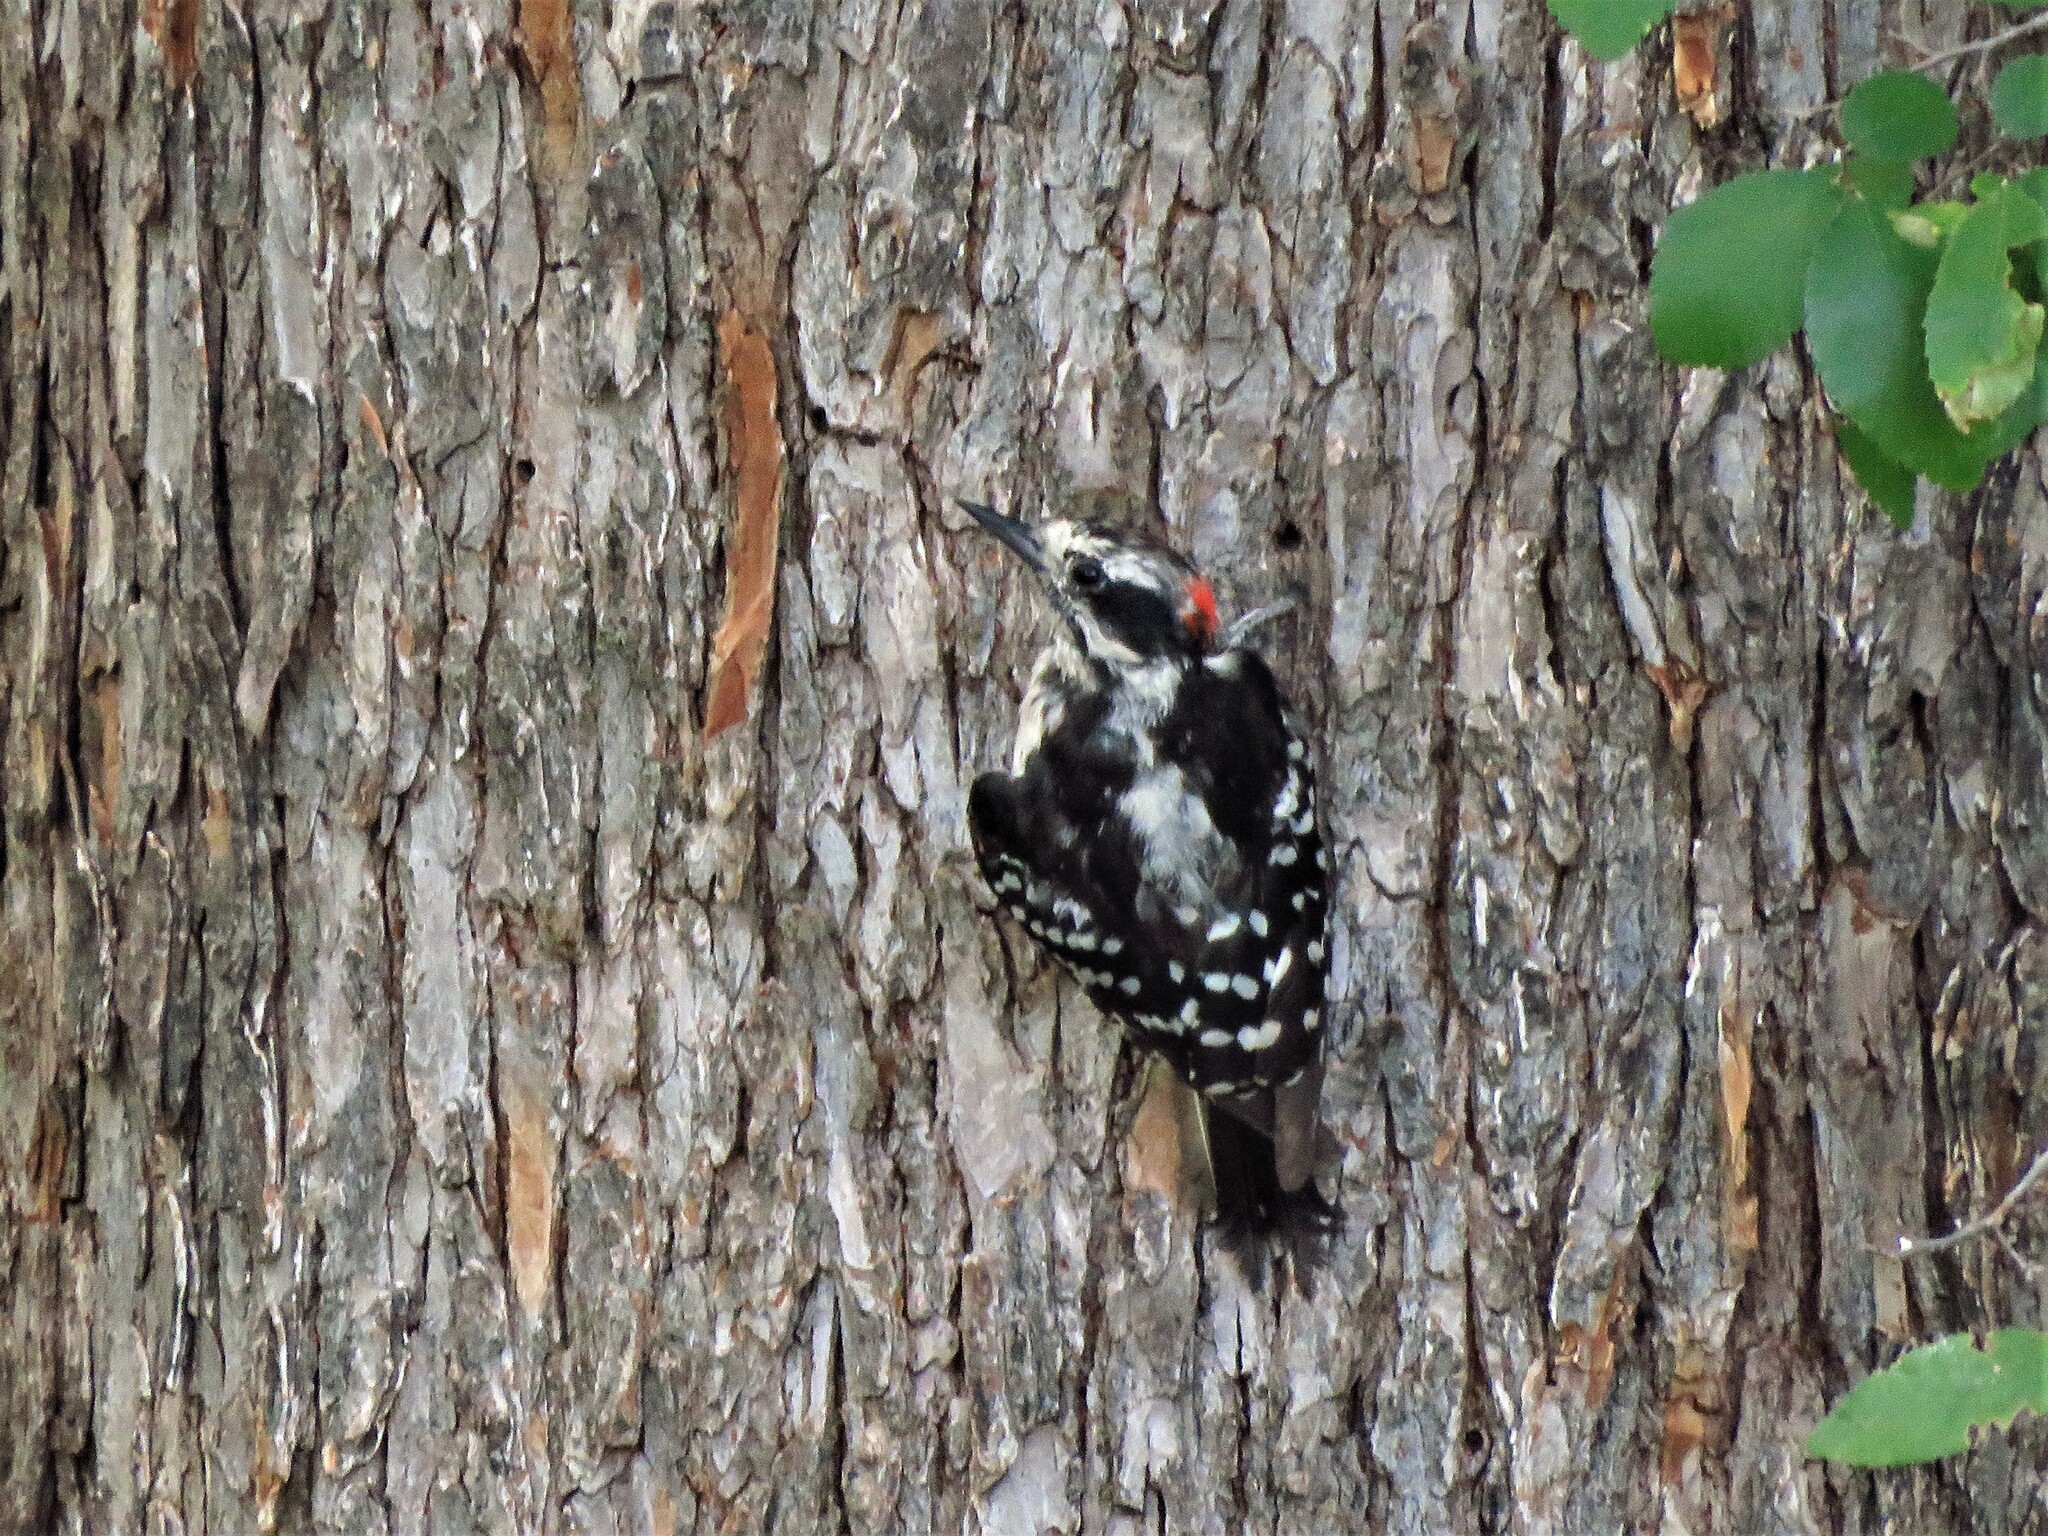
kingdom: Animalia
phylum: Chordata
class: Aves
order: Piciformes
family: Picidae
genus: Dryobates
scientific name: Dryobates pubescens
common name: Downy woodpecker
